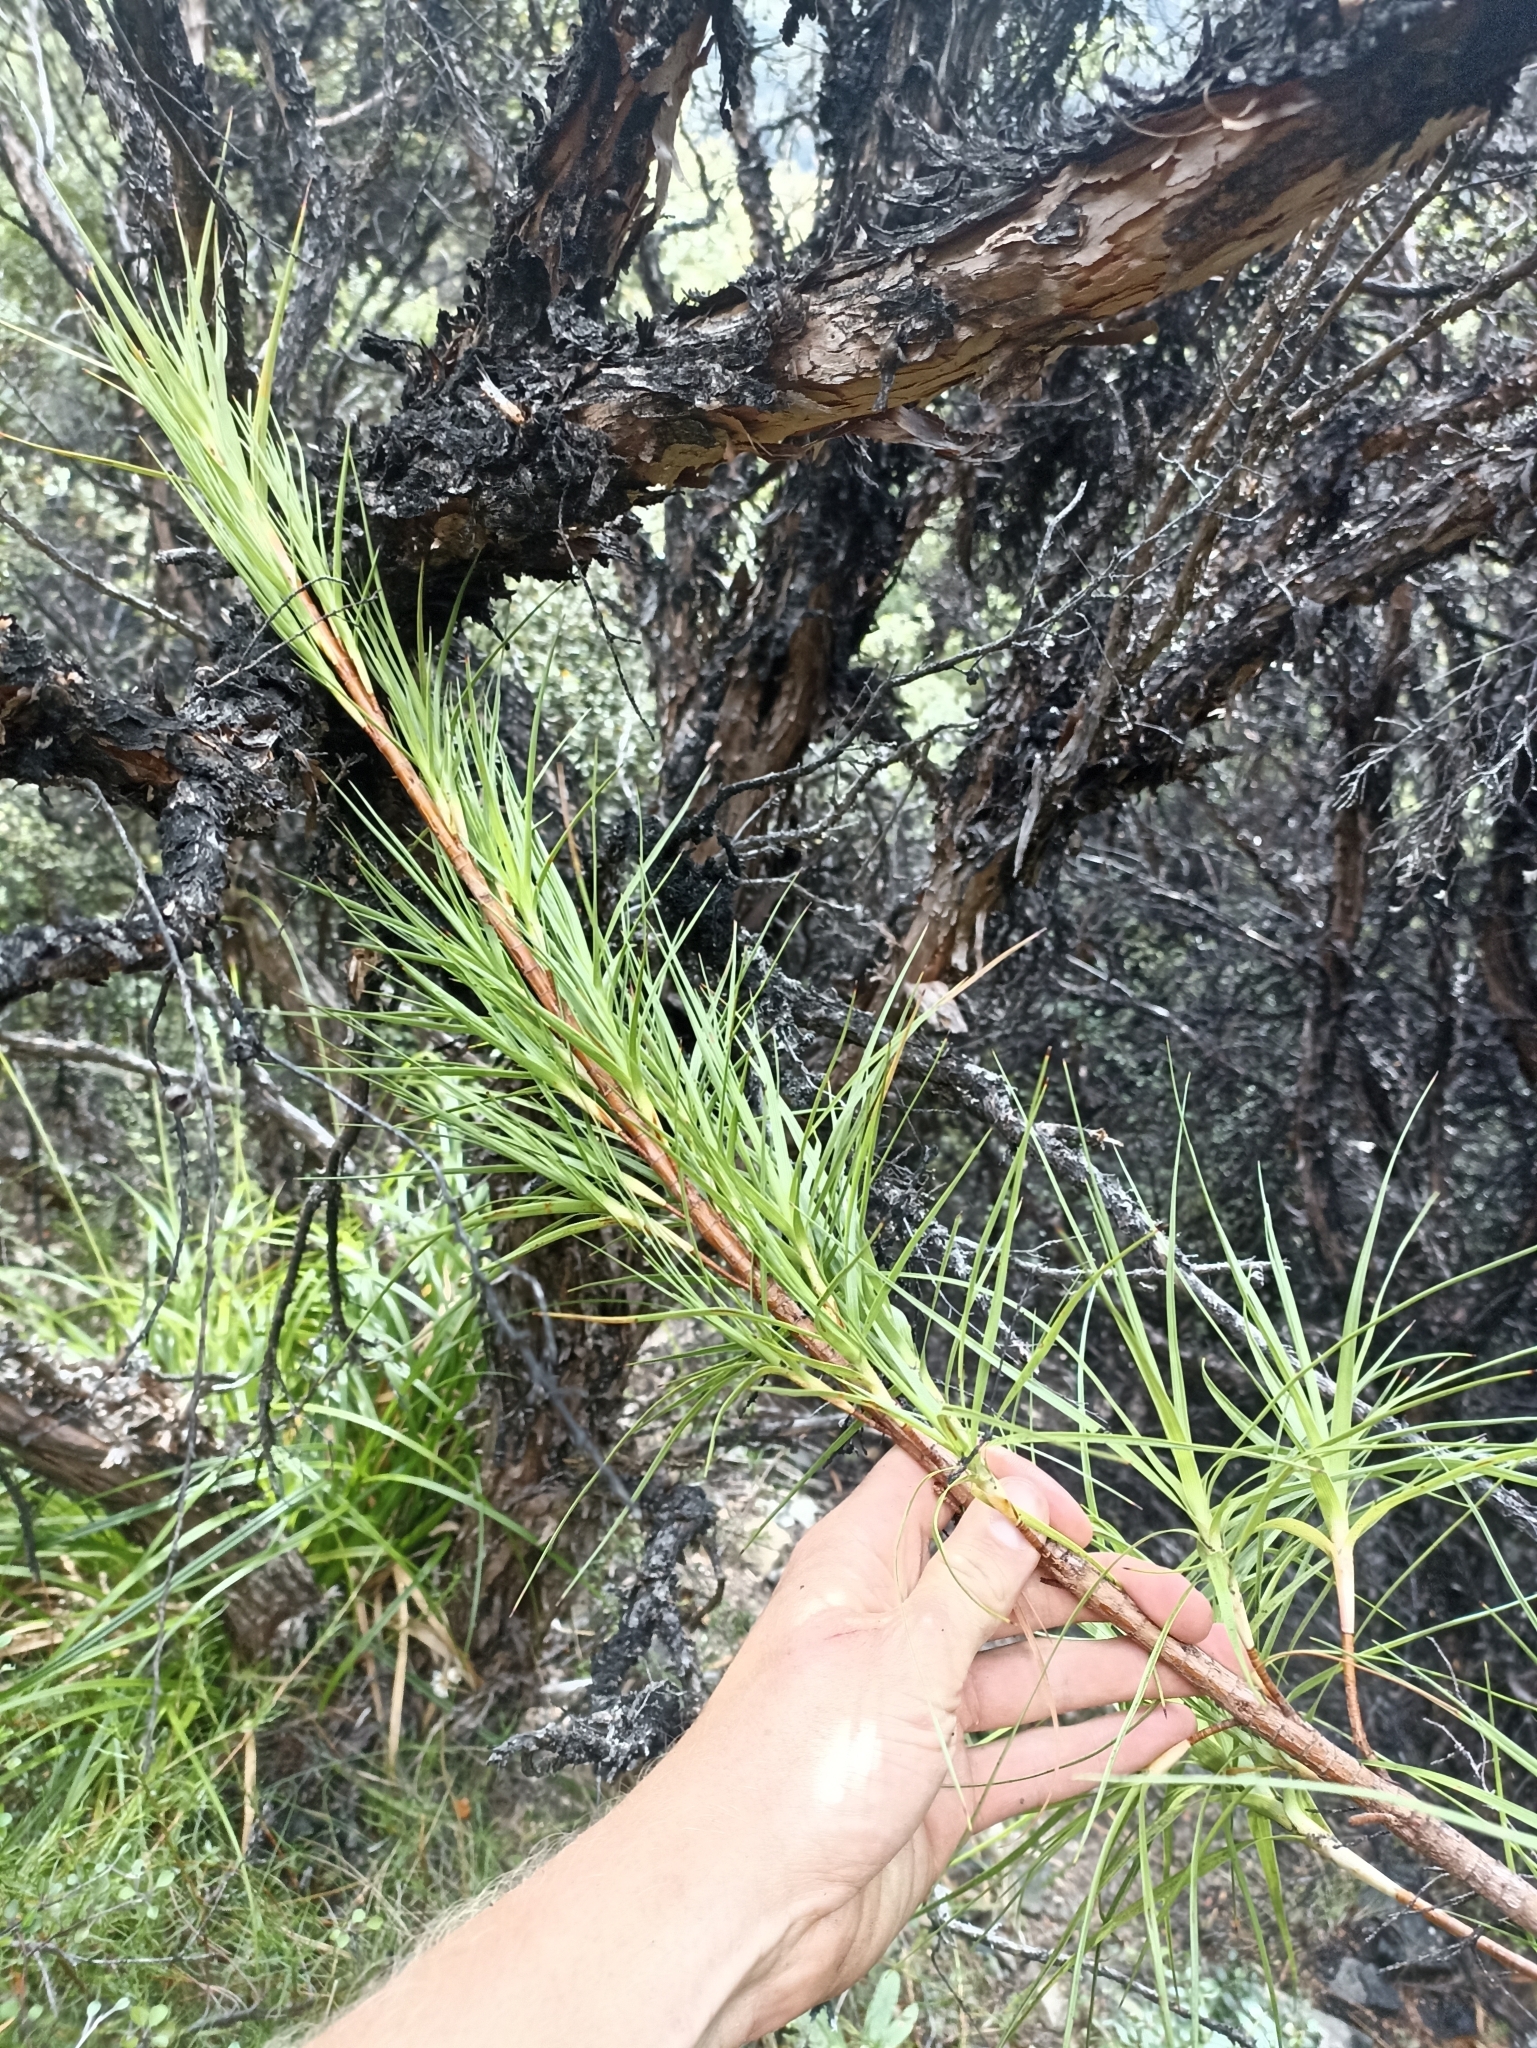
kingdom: Plantae
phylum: Tracheophyta
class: Magnoliopsida
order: Ericales
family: Ericaceae
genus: Dracophyllum
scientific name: Dracophyllum longifolium
